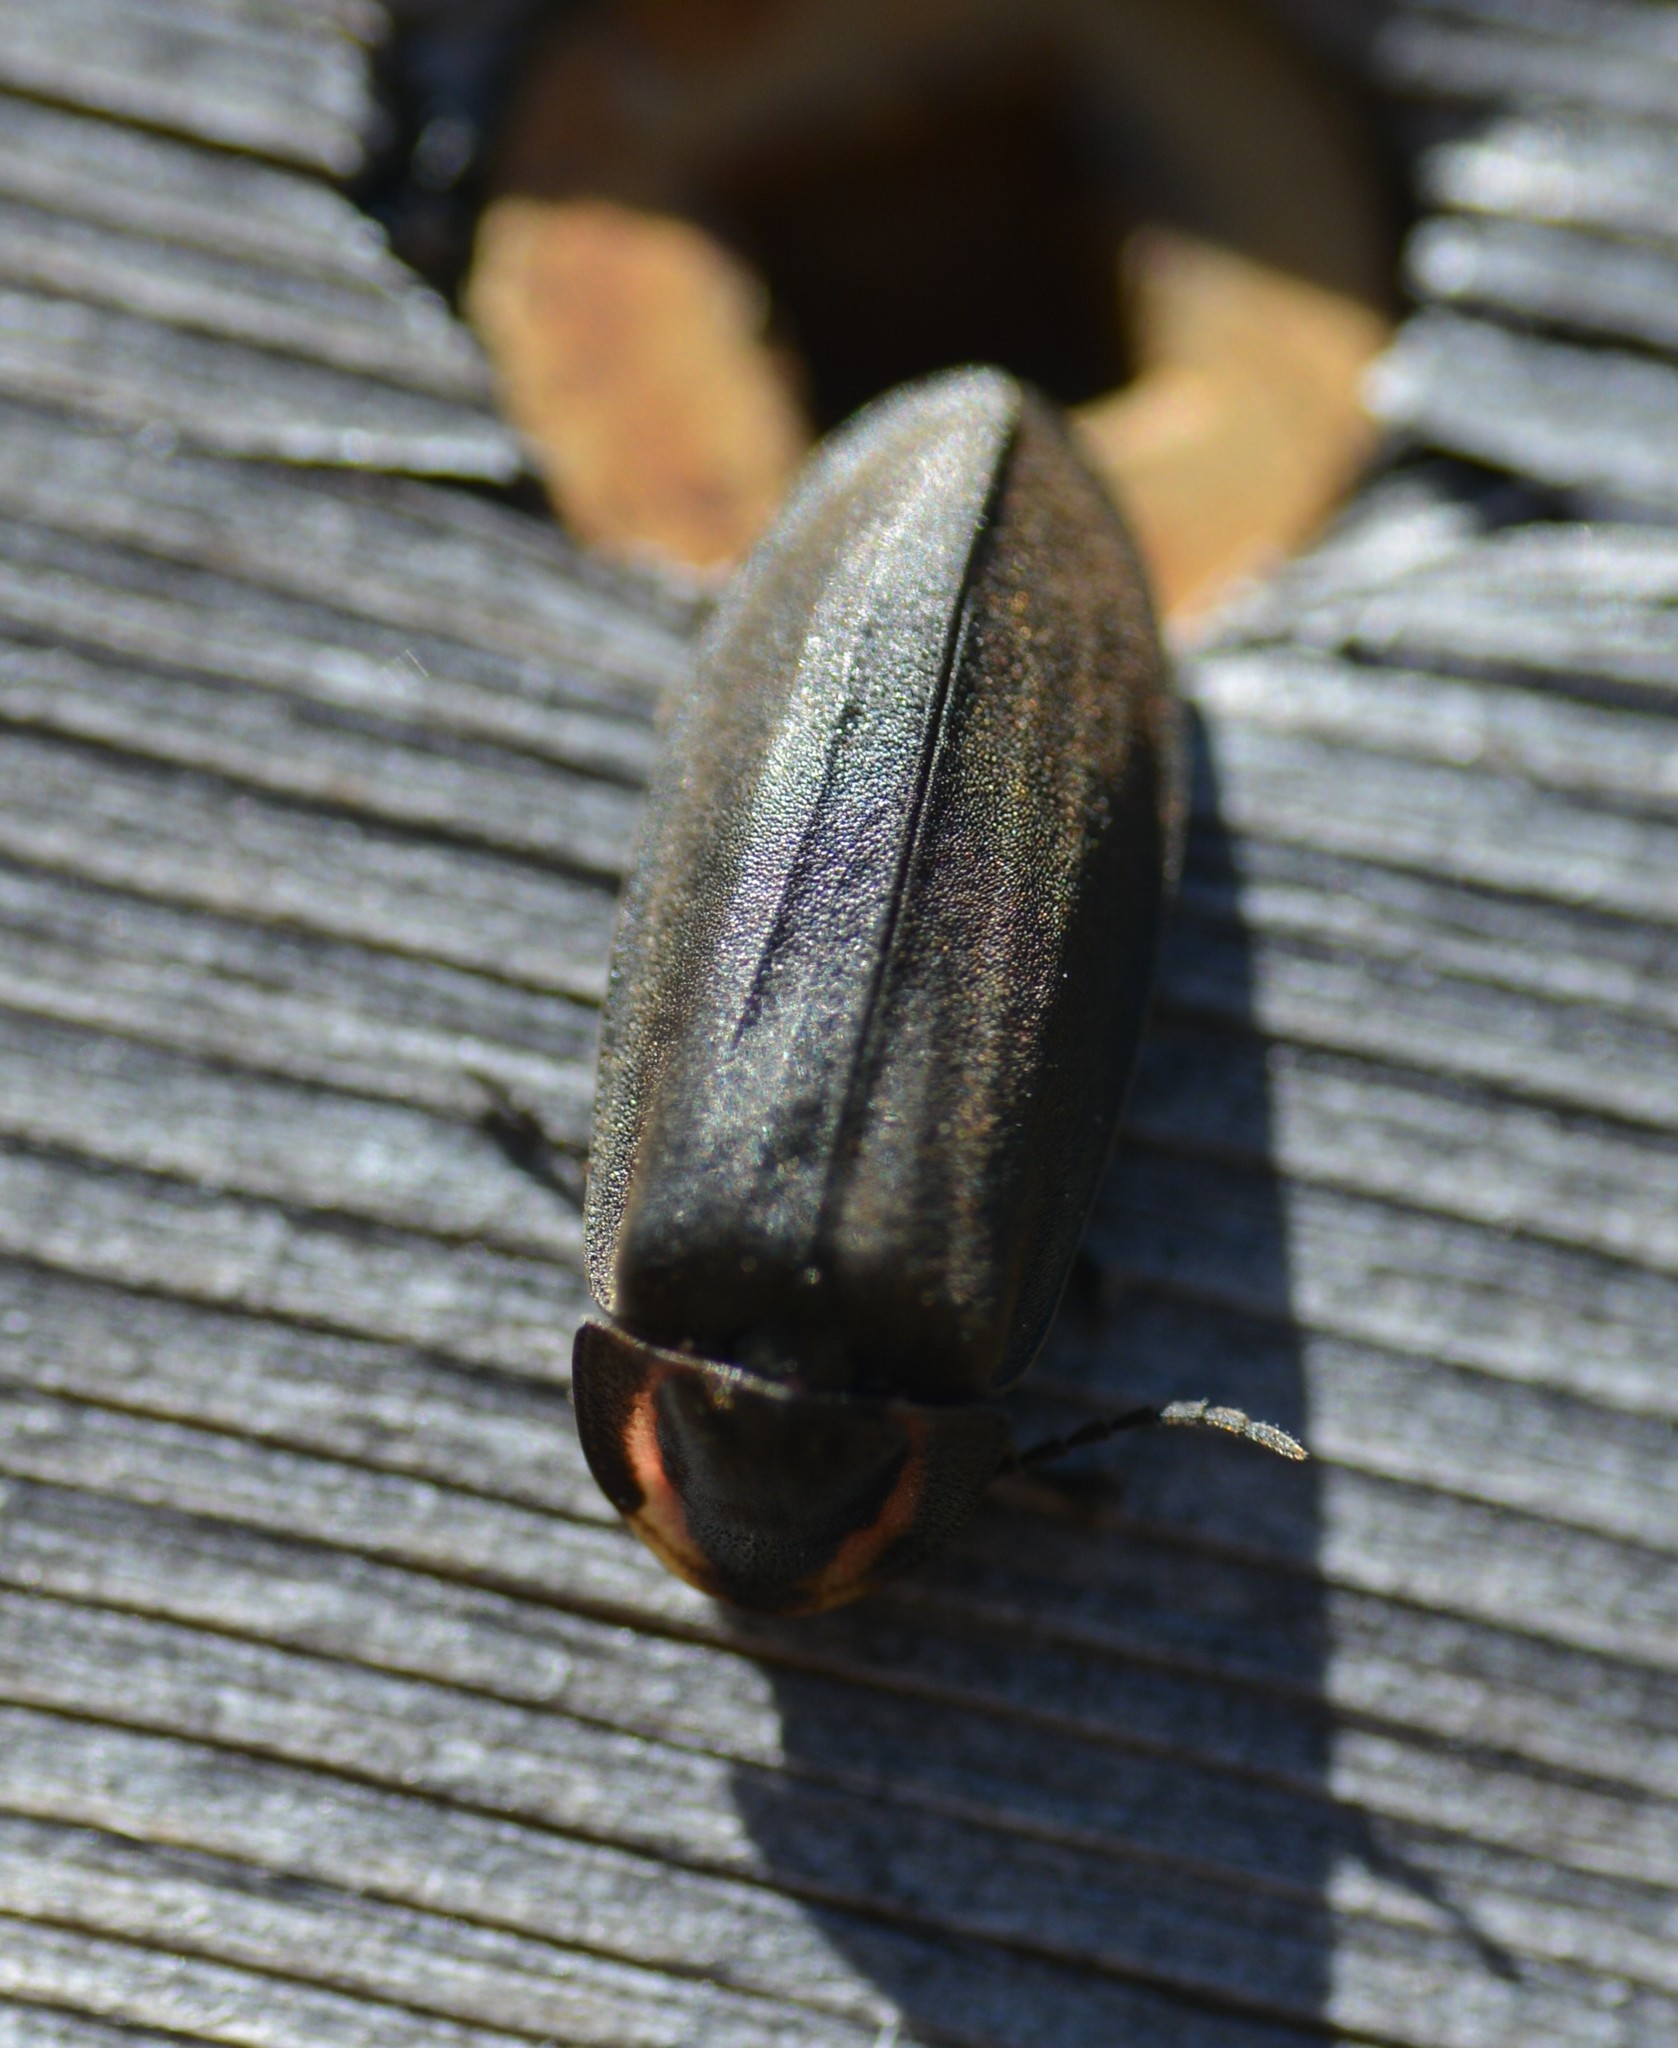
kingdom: Animalia
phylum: Arthropoda
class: Insecta
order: Coleoptera
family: Lampyridae
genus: Photinus
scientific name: Photinus corrusca
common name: Winter firefly
